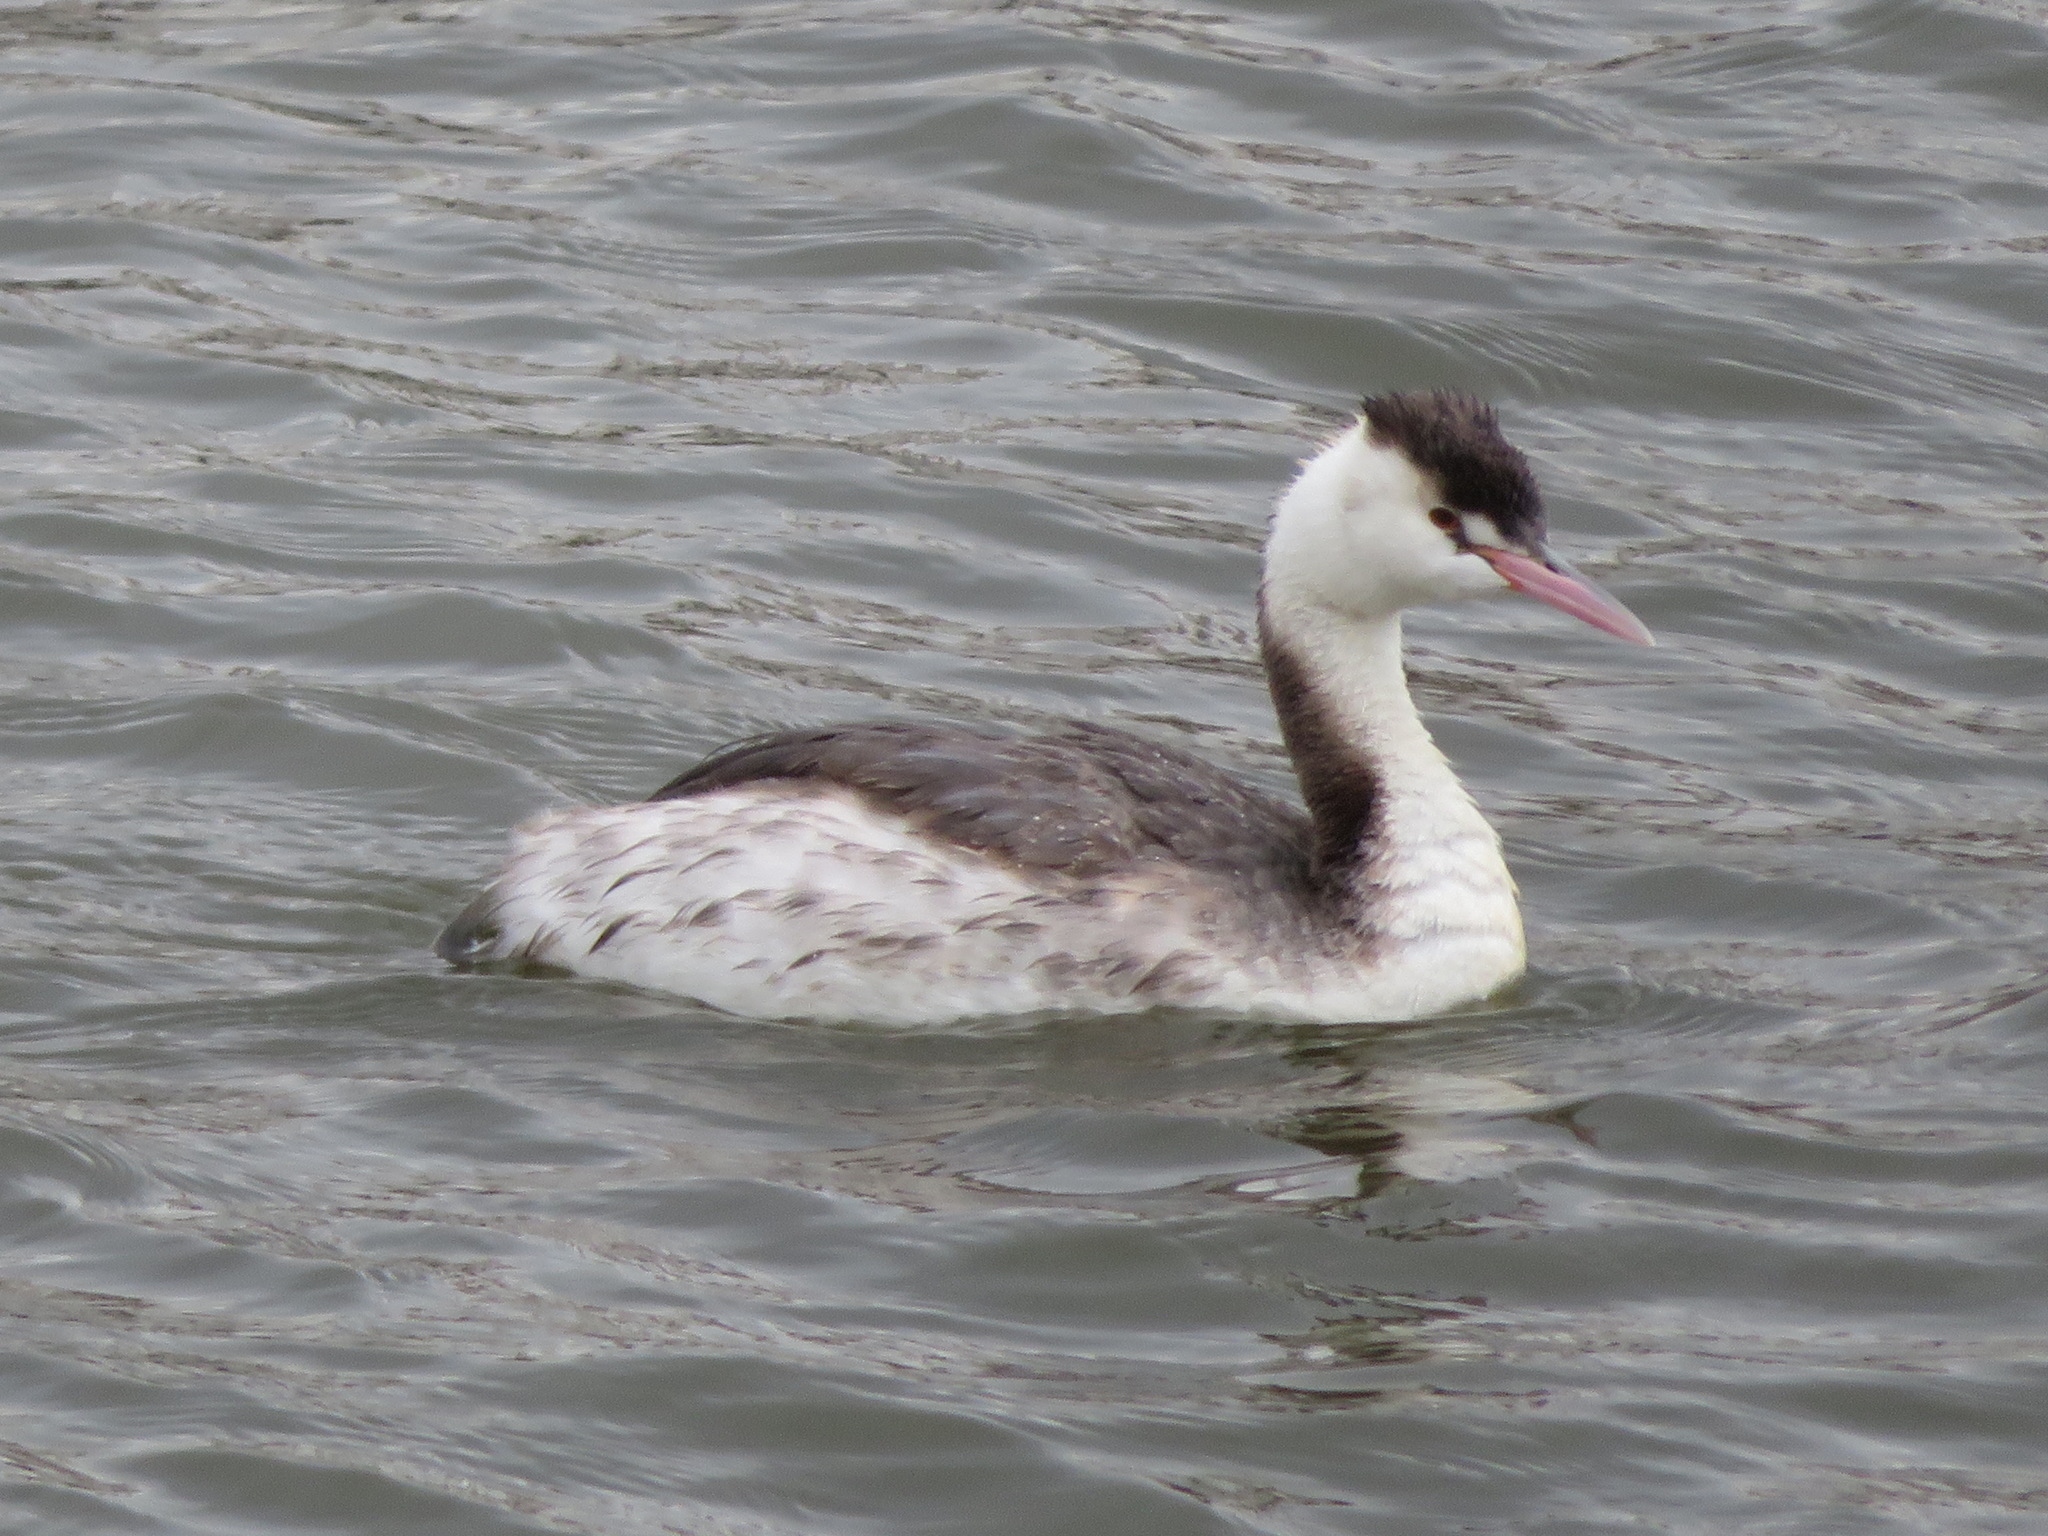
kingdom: Animalia
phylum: Chordata
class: Aves
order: Podicipediformes
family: Podicipedidae
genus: Podiceps
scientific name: Podiceps cristatus
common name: Great crested grebe
